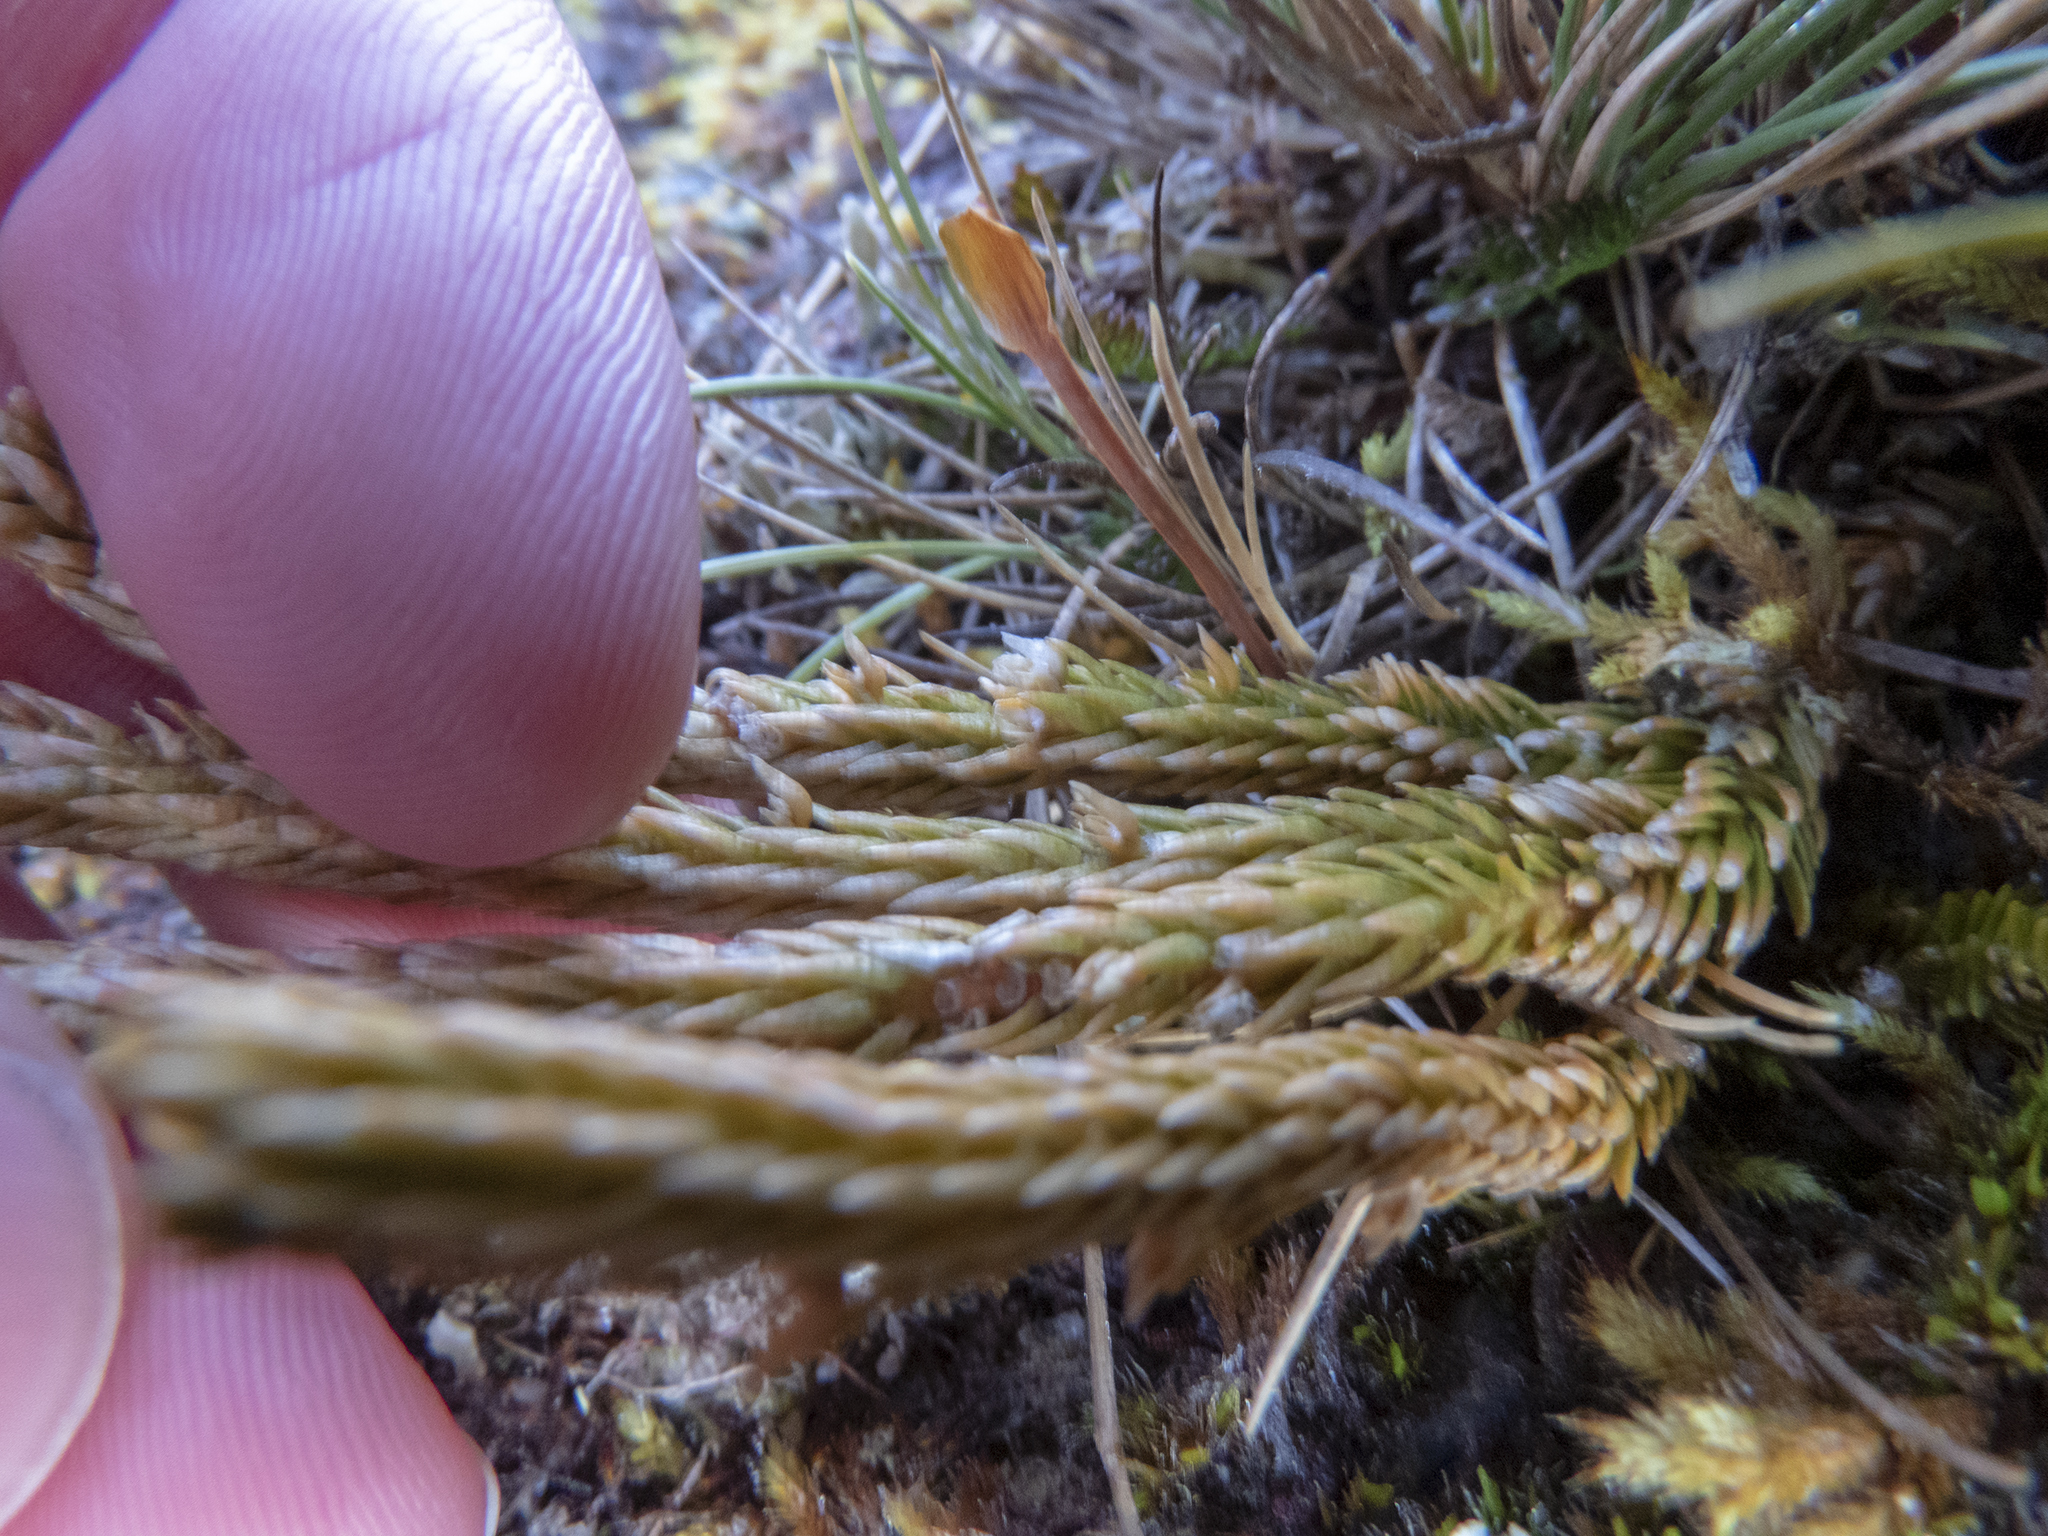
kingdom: Plantae
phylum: Tracheophyta
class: Lycopodiopsida
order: Lycopodiales
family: Lycopodiaceae
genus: Huperzia
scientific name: Huperzia australiana
